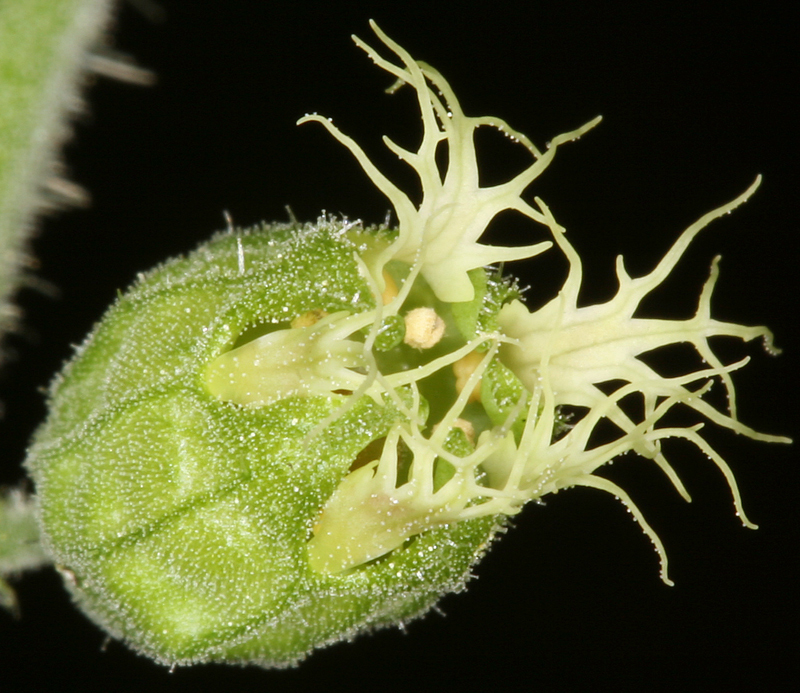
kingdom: Plantae
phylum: Tracheophyta
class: Magnoliopsida
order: Saxifragales
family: Saxifragaceae
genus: Tellima
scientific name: Tellima grandiflora
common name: Fringecups
